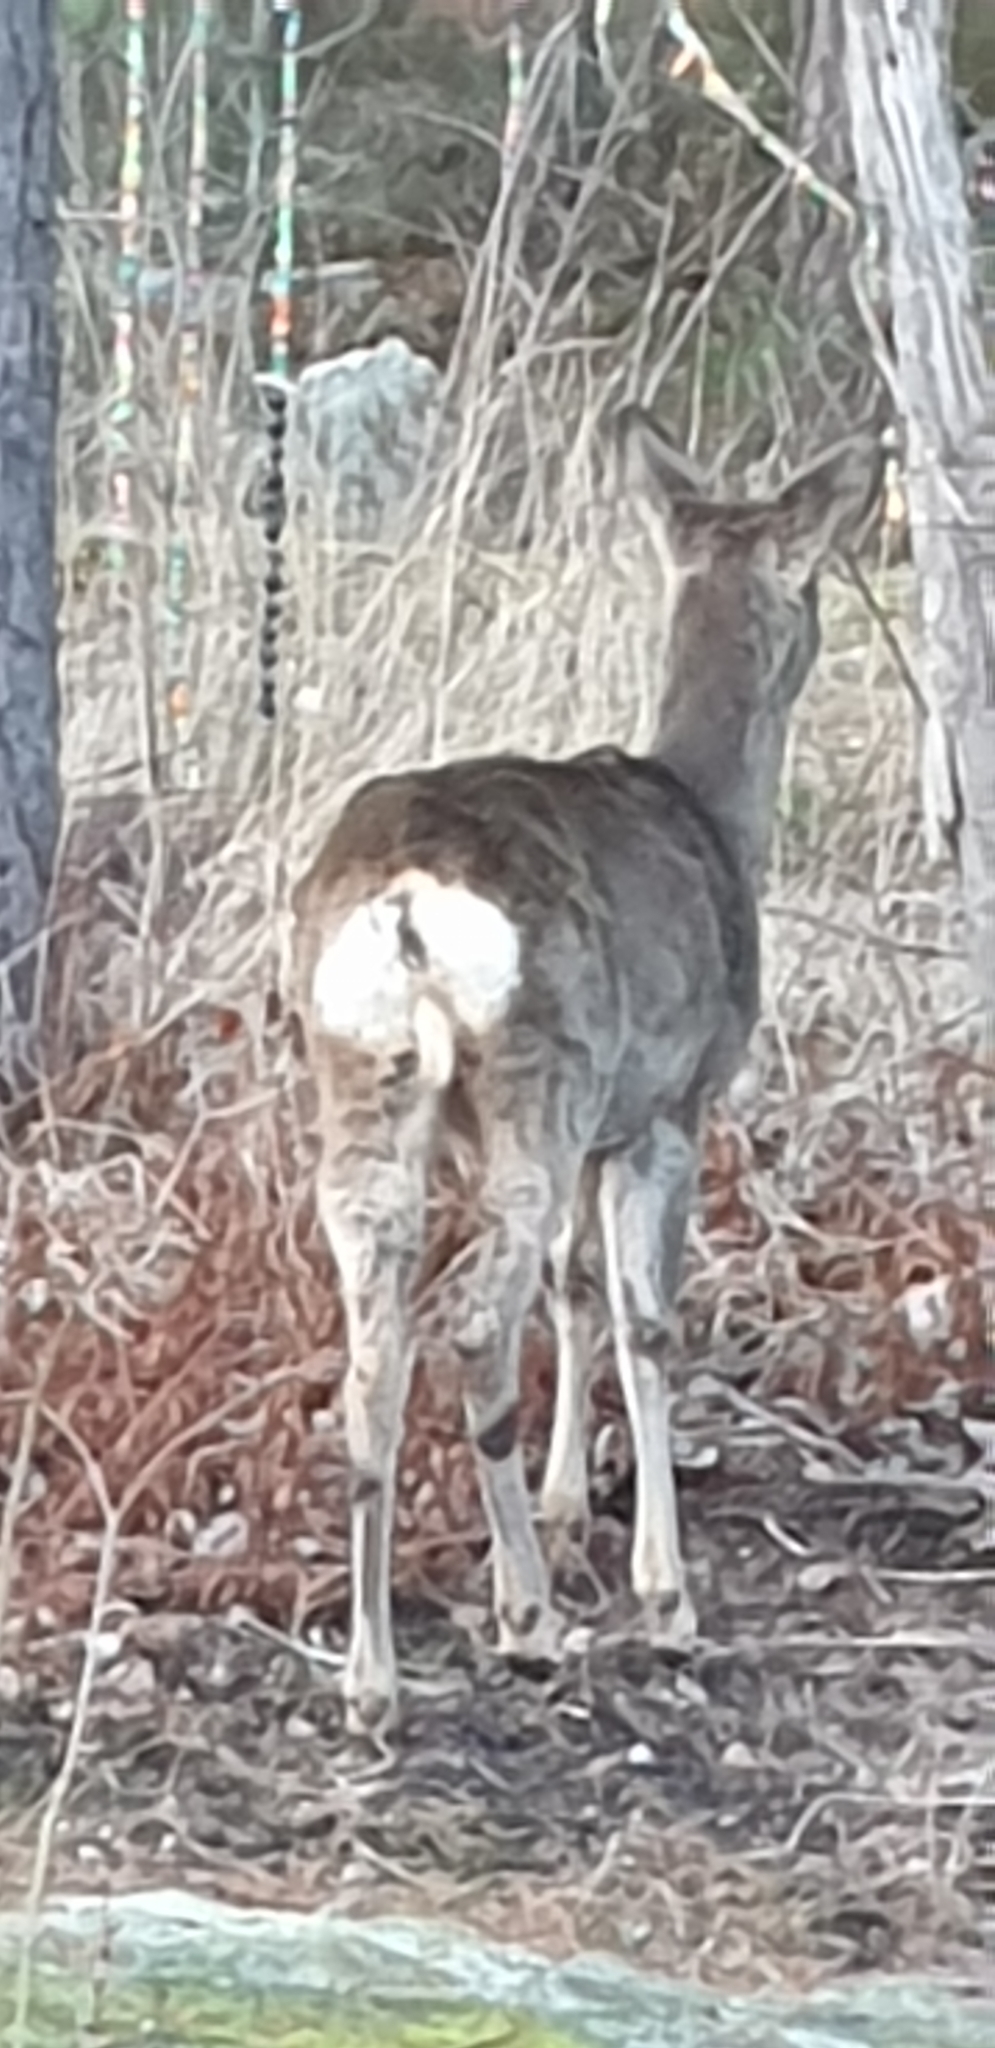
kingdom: Animalia
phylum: Chordata
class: Mammalia
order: Artiodactyla
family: Cervidae
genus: Capreolus
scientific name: Capreolus capreolus
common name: Western roe deer
